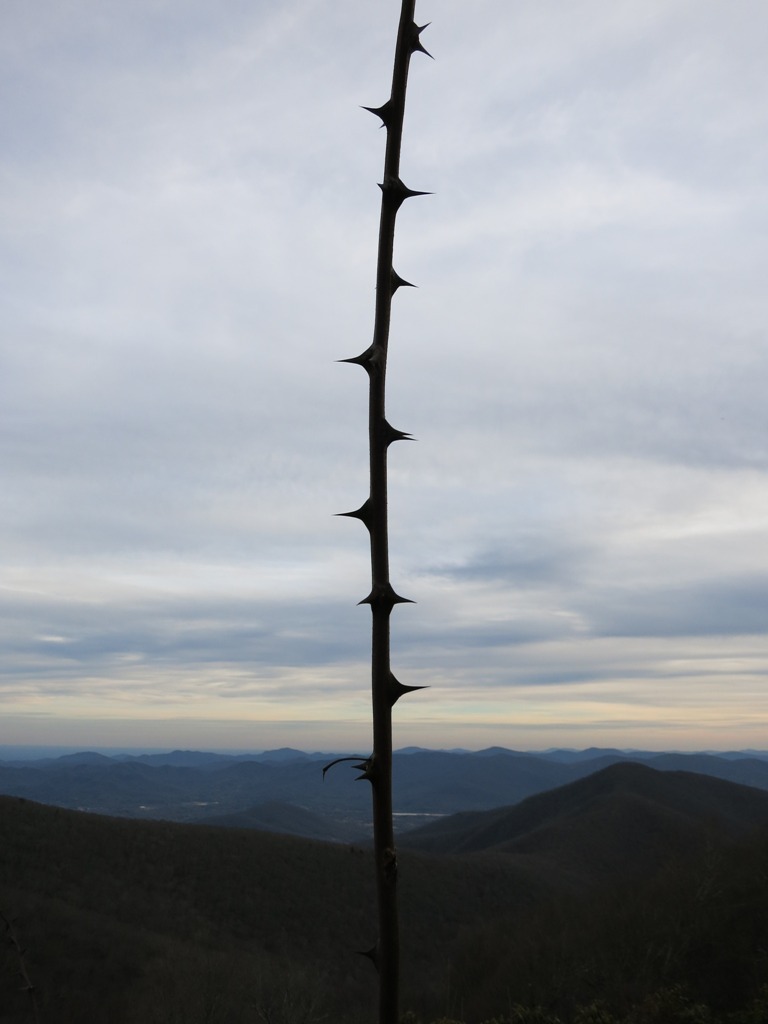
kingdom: Plantae
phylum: Tracheophyta
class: Magnoliopsida
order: Fabales
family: Fabaceae
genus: Robinia
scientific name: Robinia pseudoacacia
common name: Black locust
